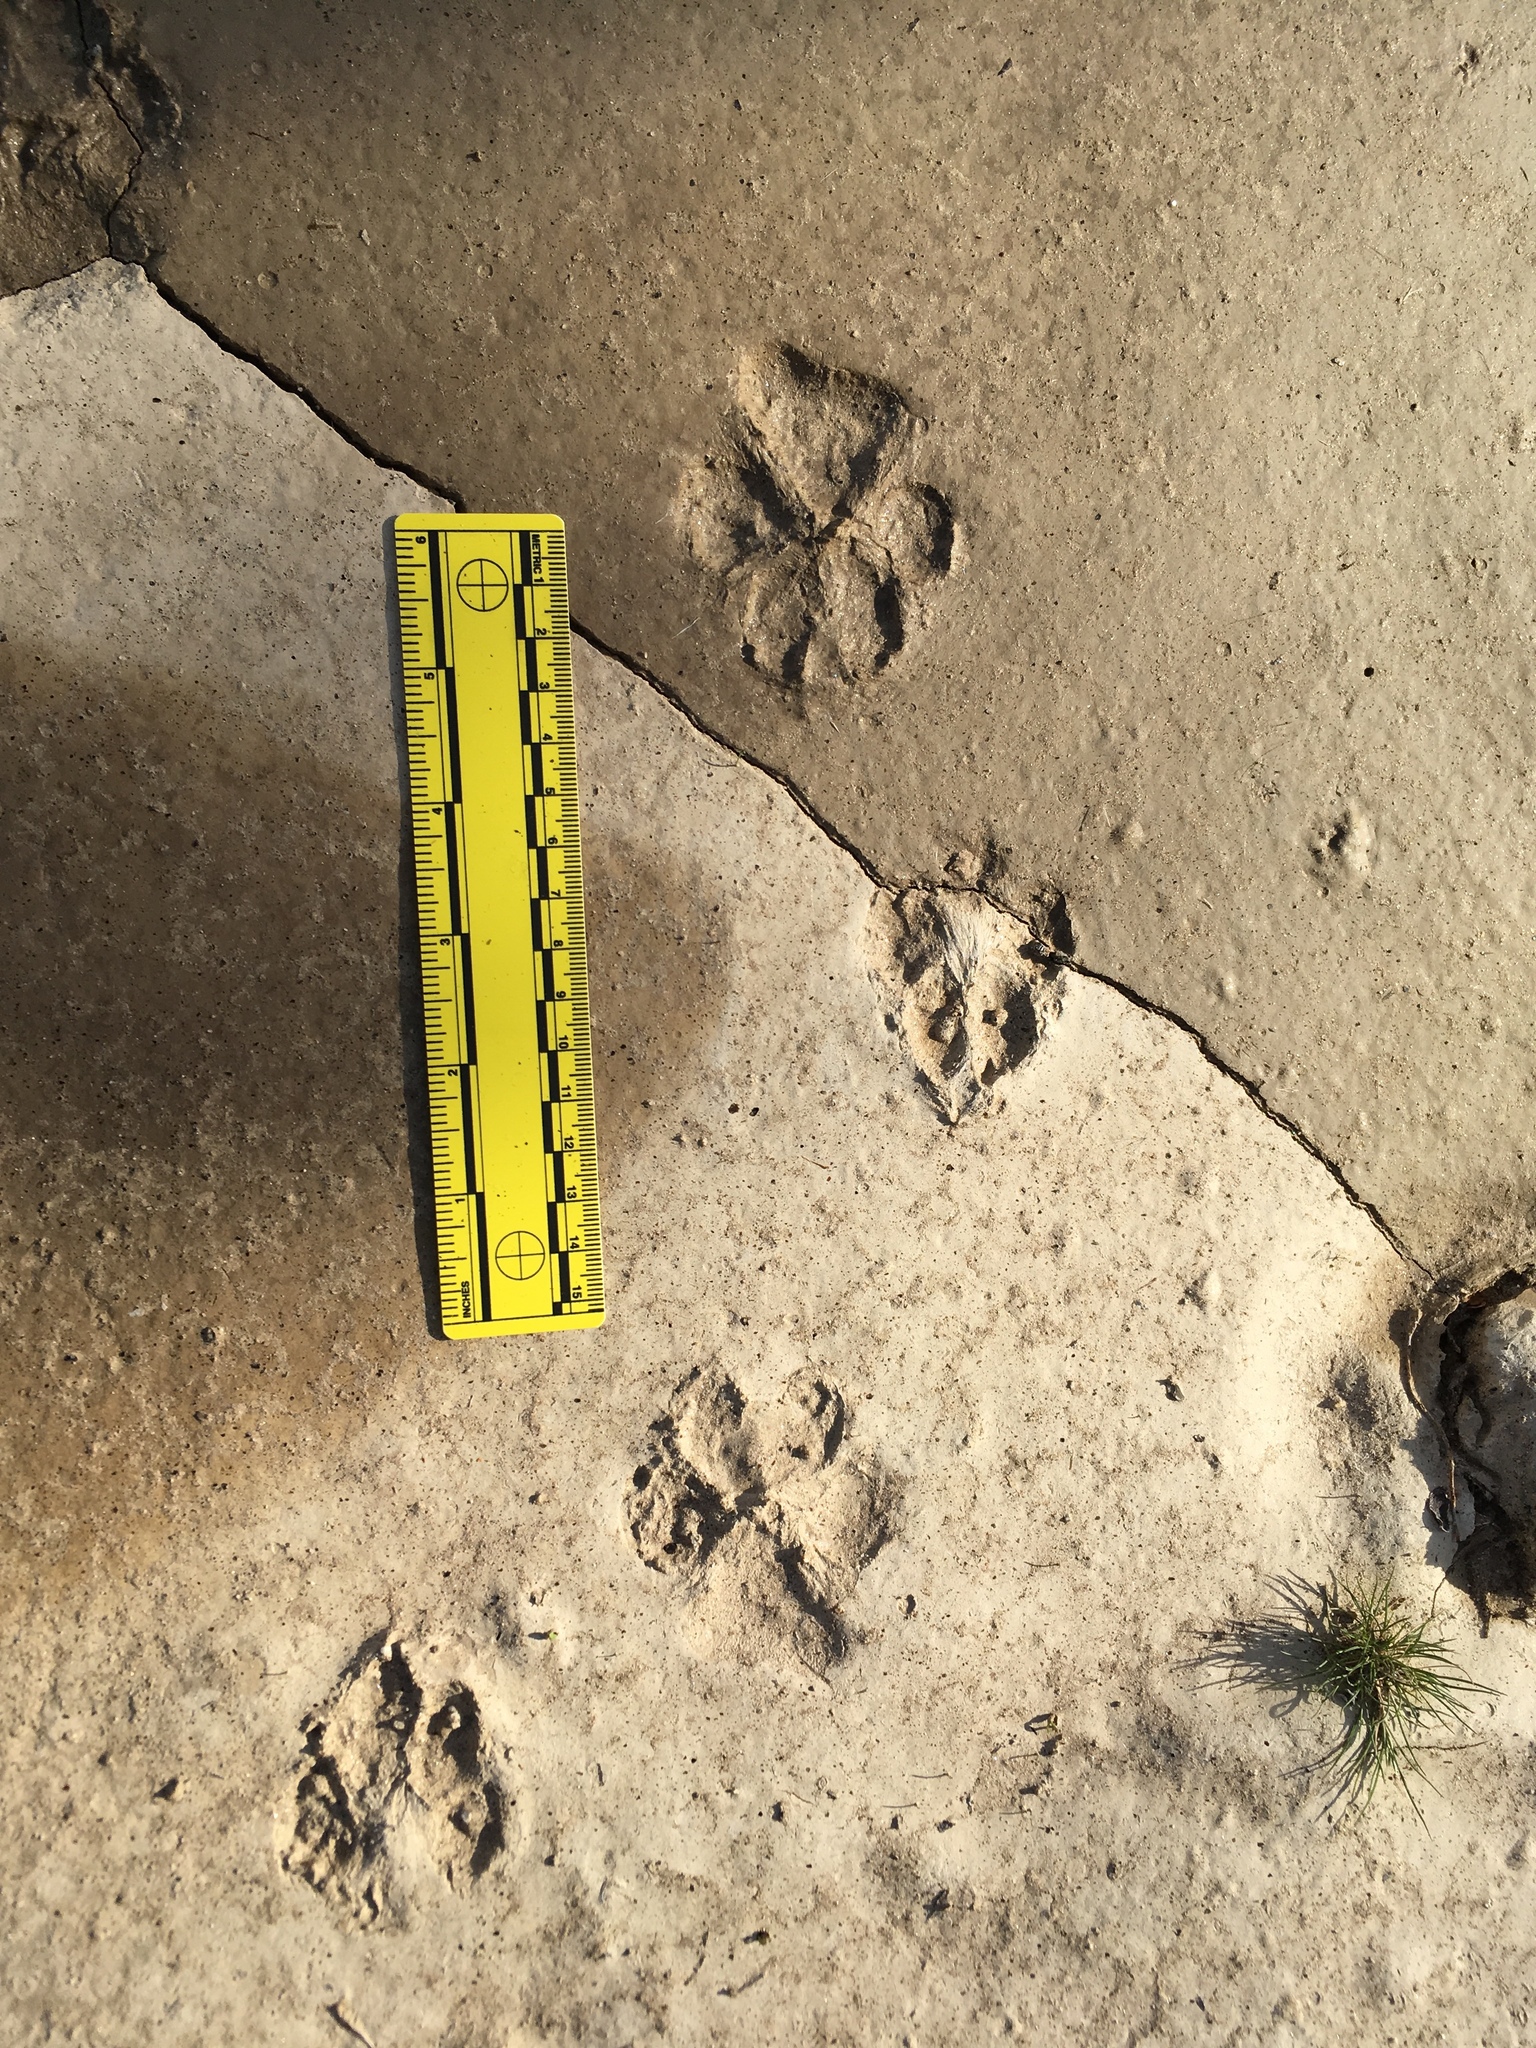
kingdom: Animalia
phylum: Chordata
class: Mammalia
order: Carnivora
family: Canidae
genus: Canis
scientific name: Canis latrans
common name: Coyote
